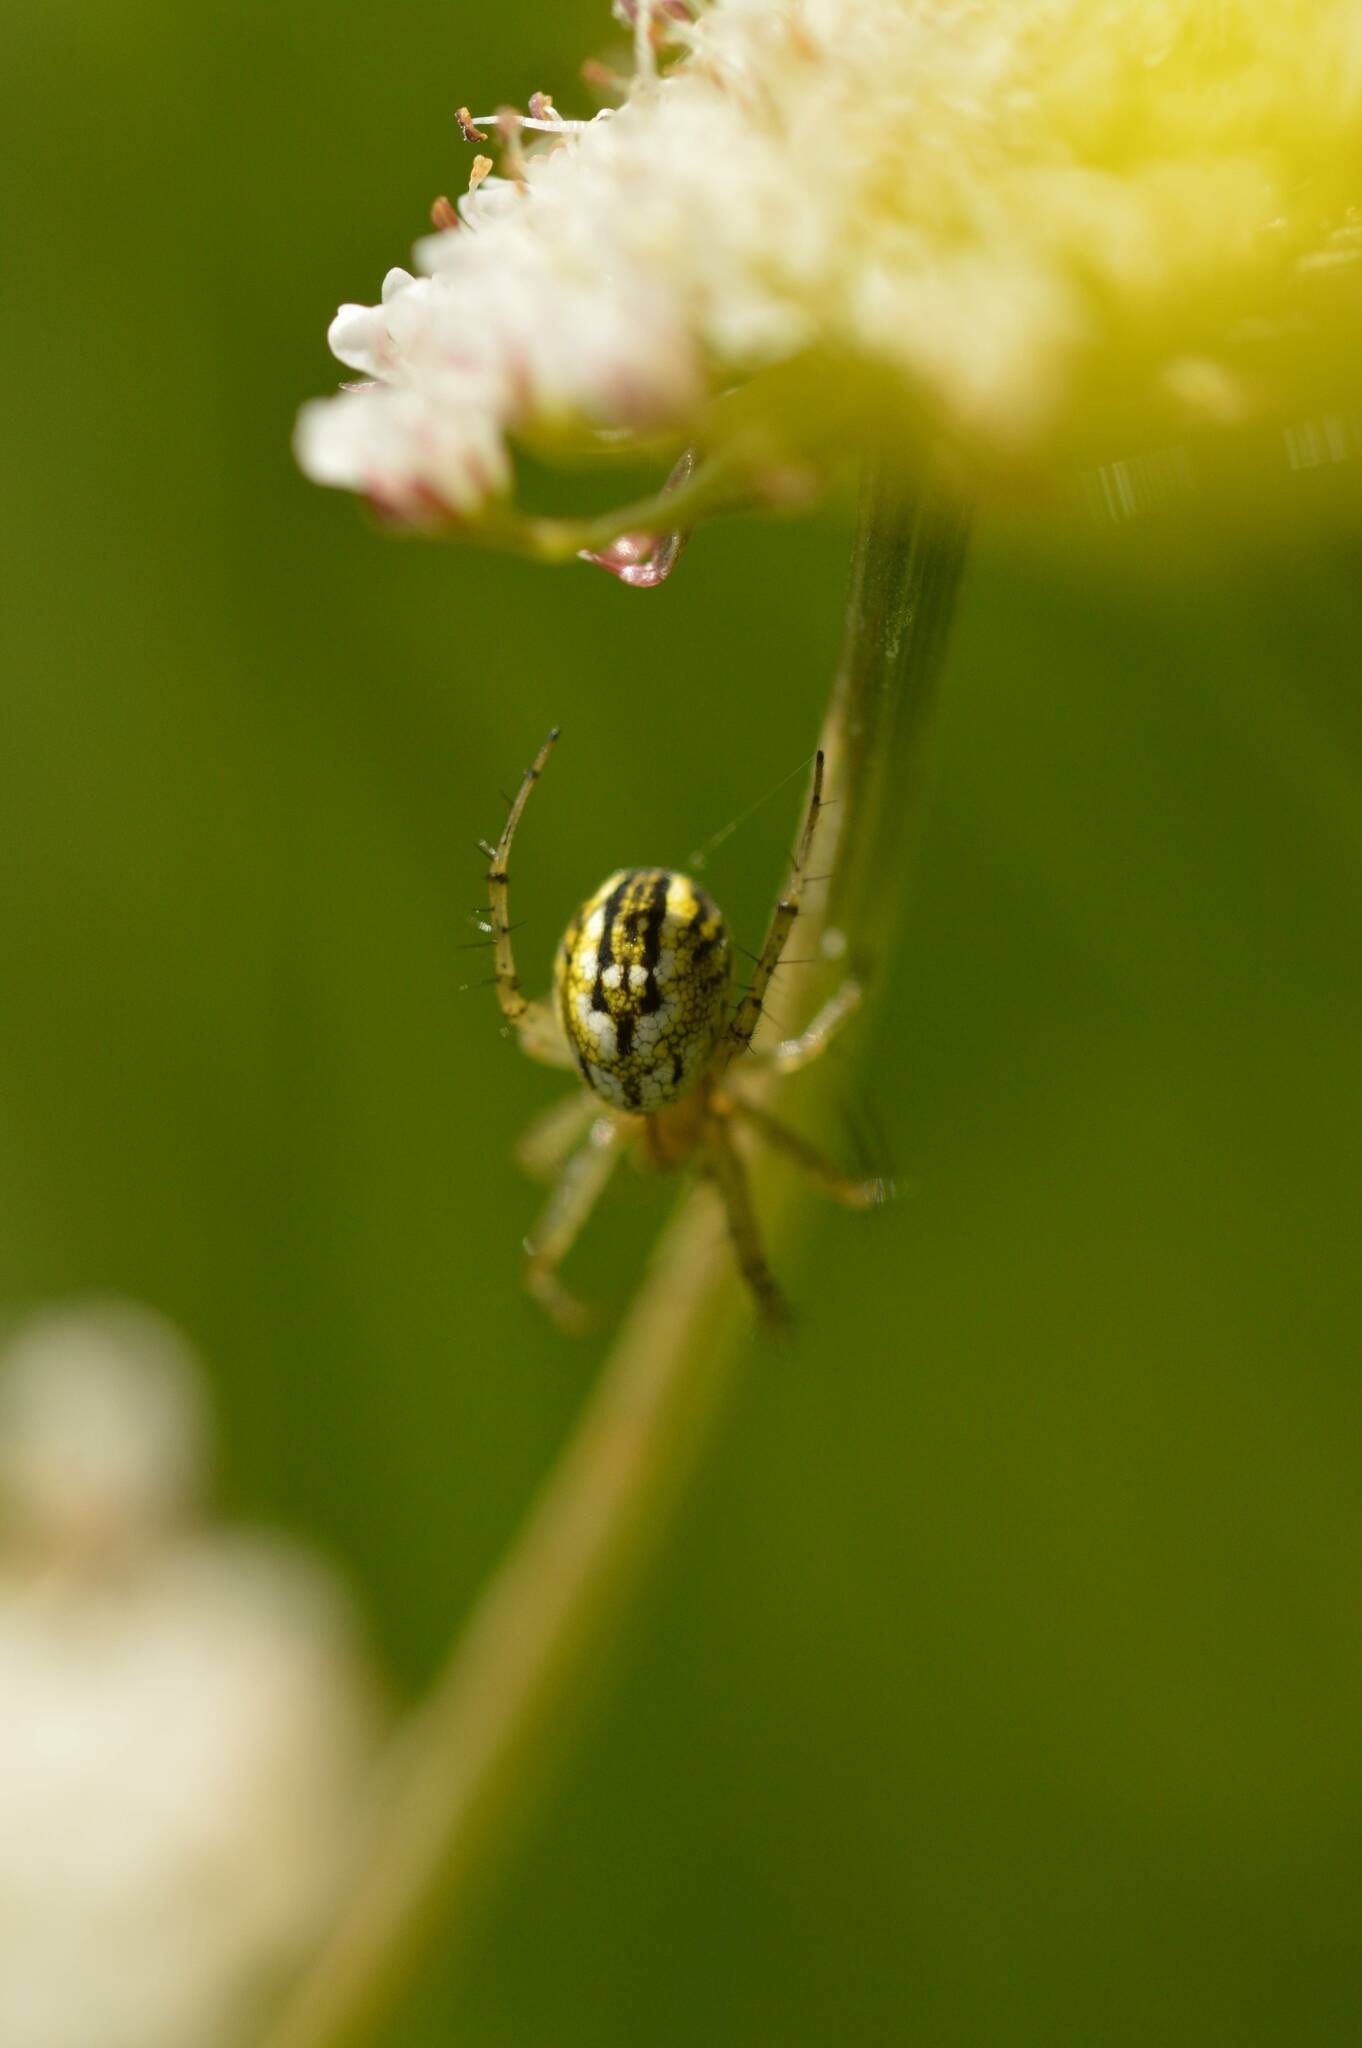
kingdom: Animalia
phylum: Arthropoda
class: Arachnida
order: Araneae
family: Araneidae
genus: Mangora
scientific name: Mangora acalypha
